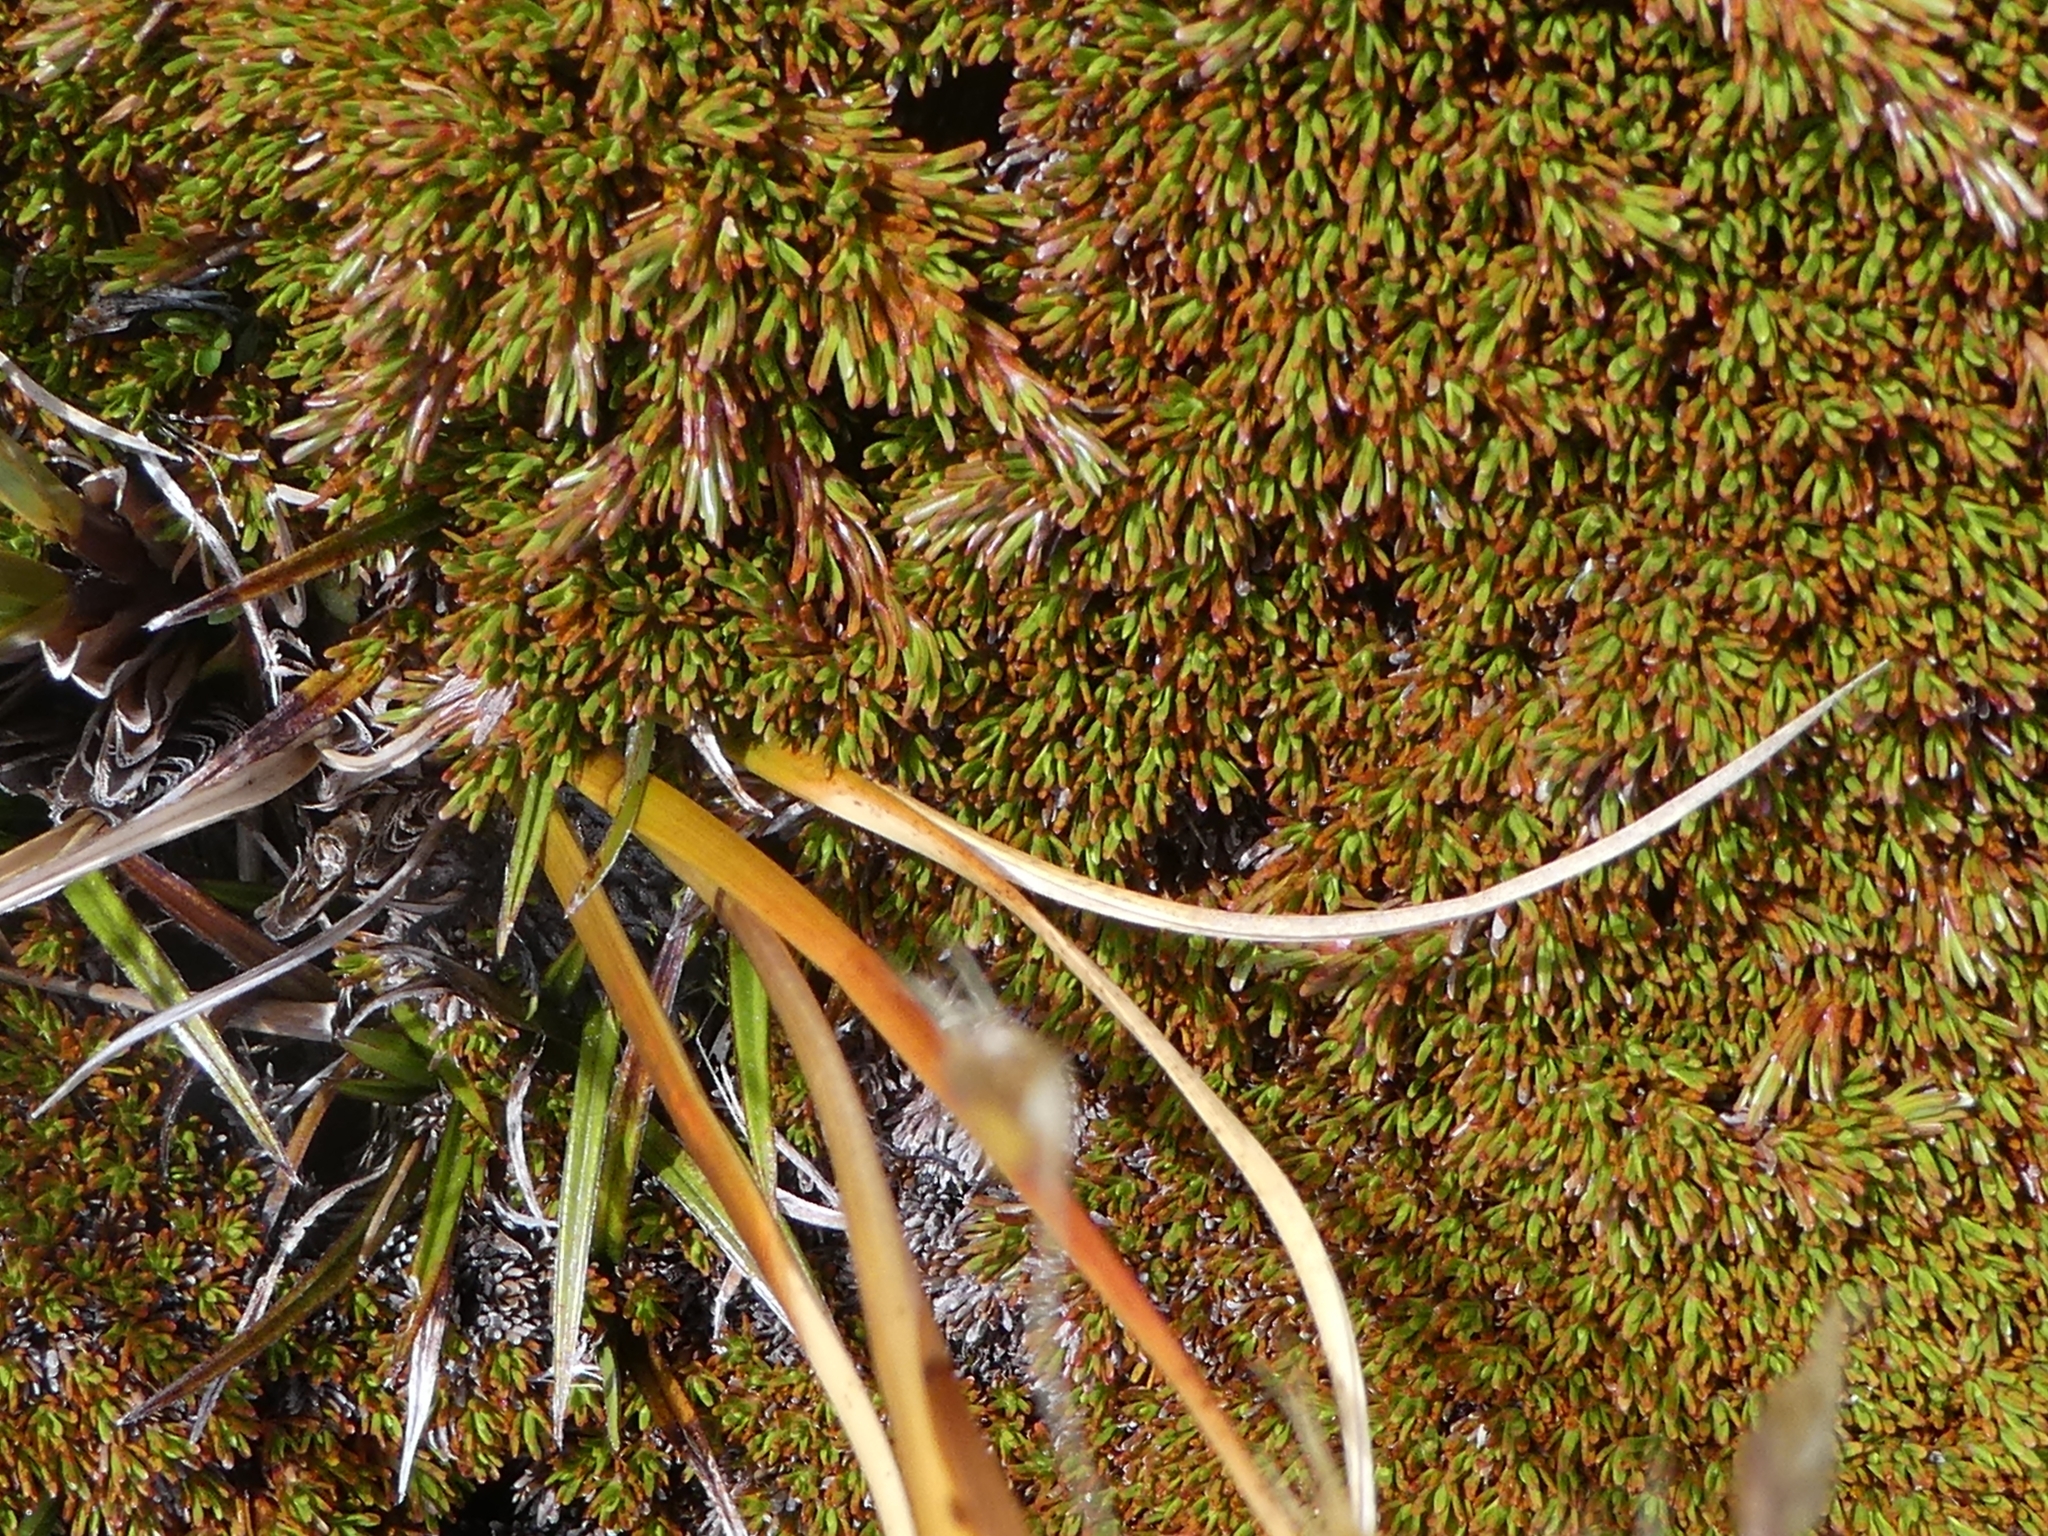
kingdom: Plantae
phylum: Tracheophyta
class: Magnoliopsida
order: Ericales
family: Ericaceae
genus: Dracophyllum
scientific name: Dracophyllum politum
